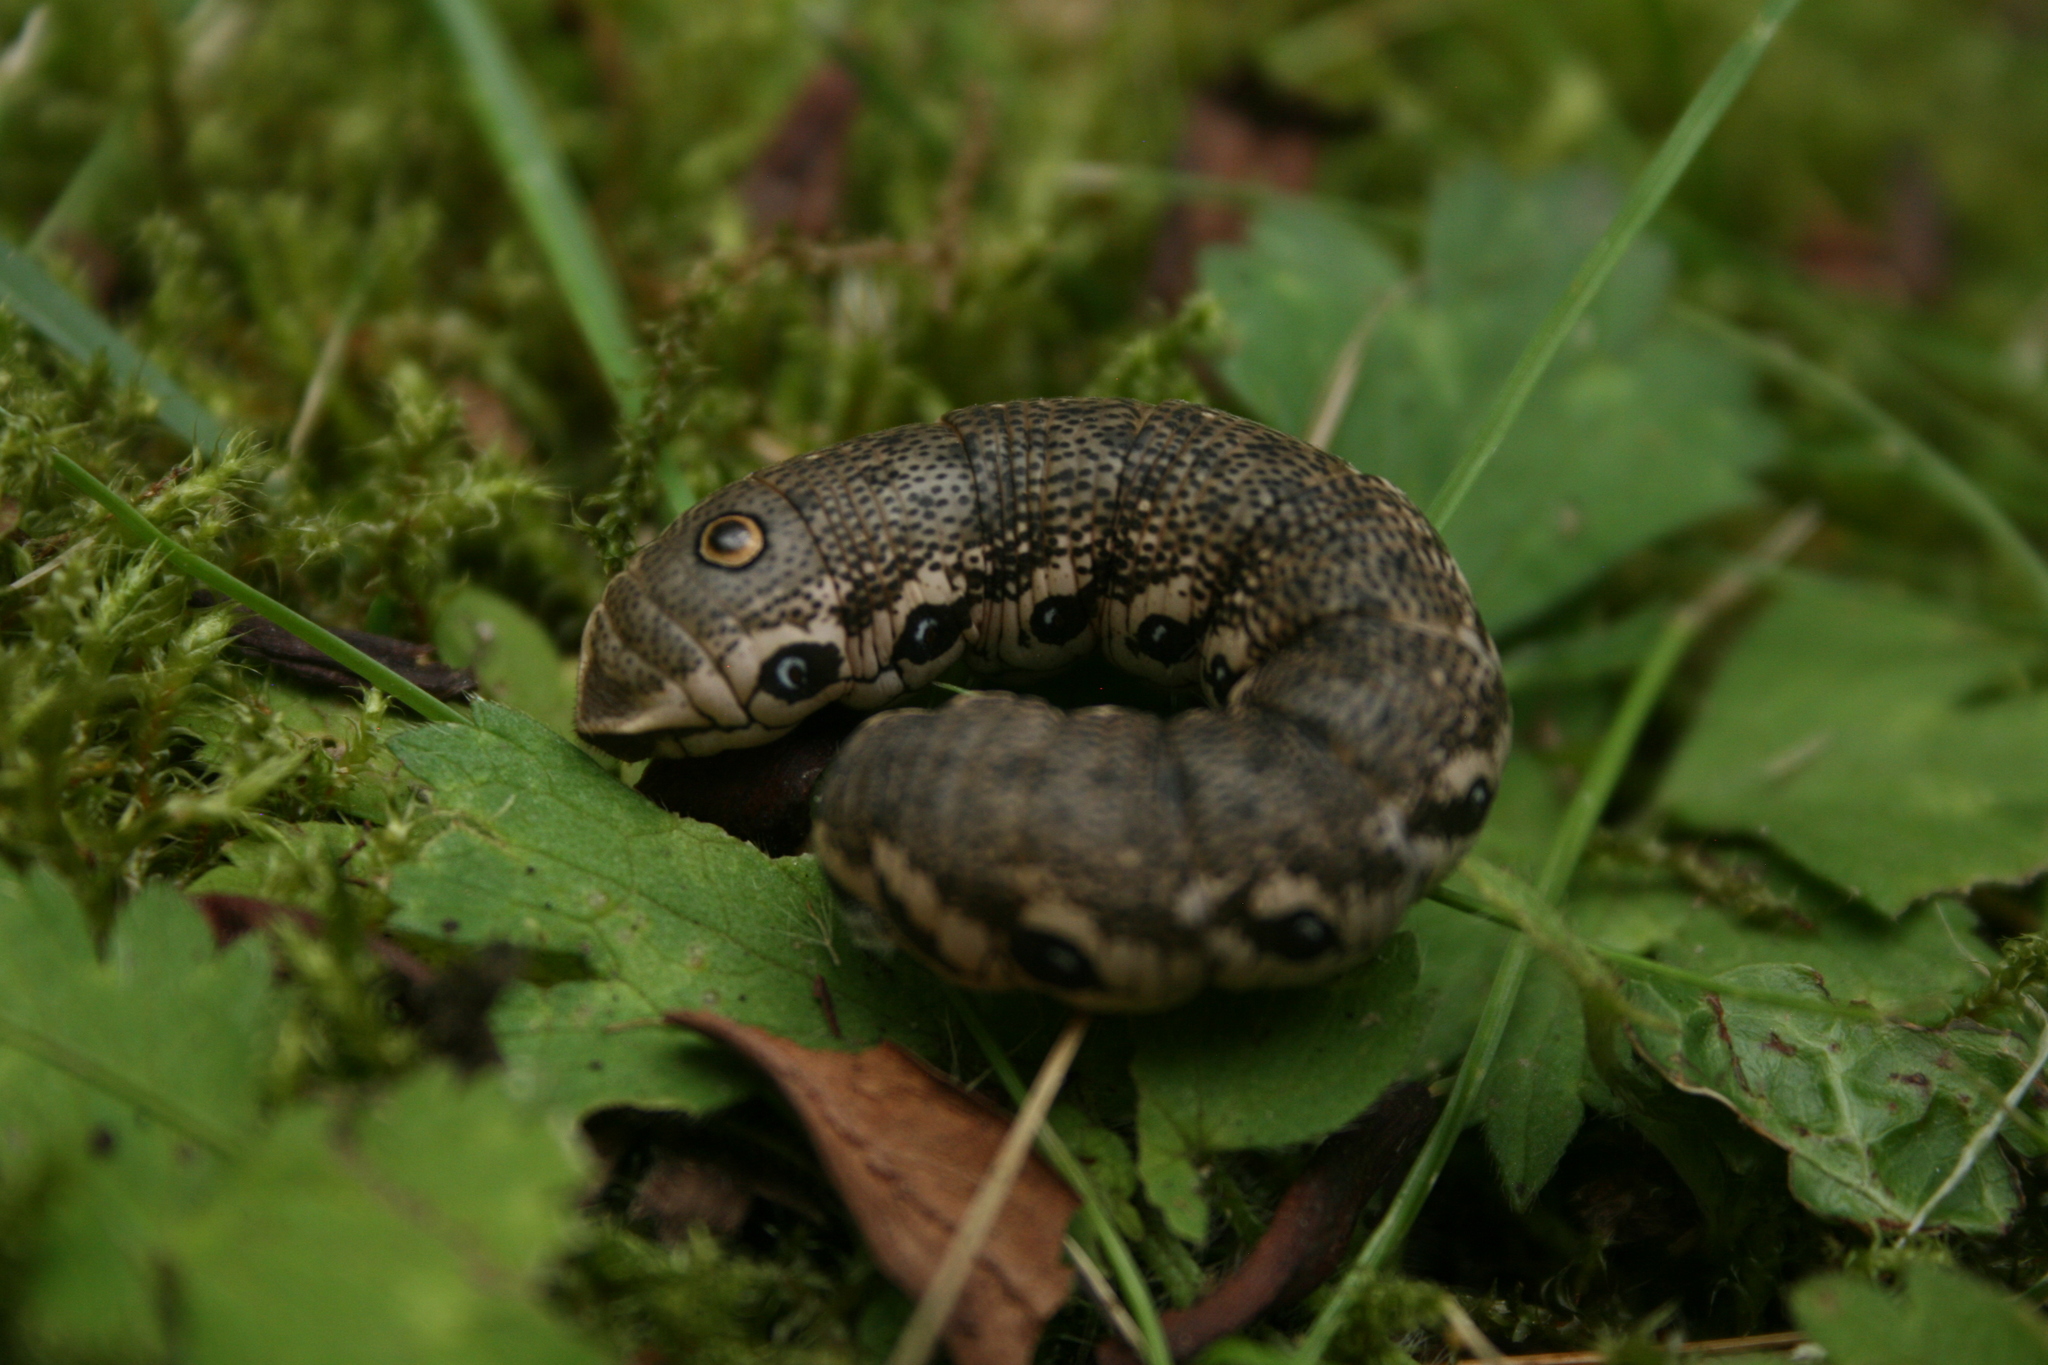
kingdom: Animalia
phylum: Arthropoda
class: Insecta
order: Lepidoptera
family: Sphingidae
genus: Proserpinus
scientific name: Proserpinus proserpina
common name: Willowherb hawkmoth
